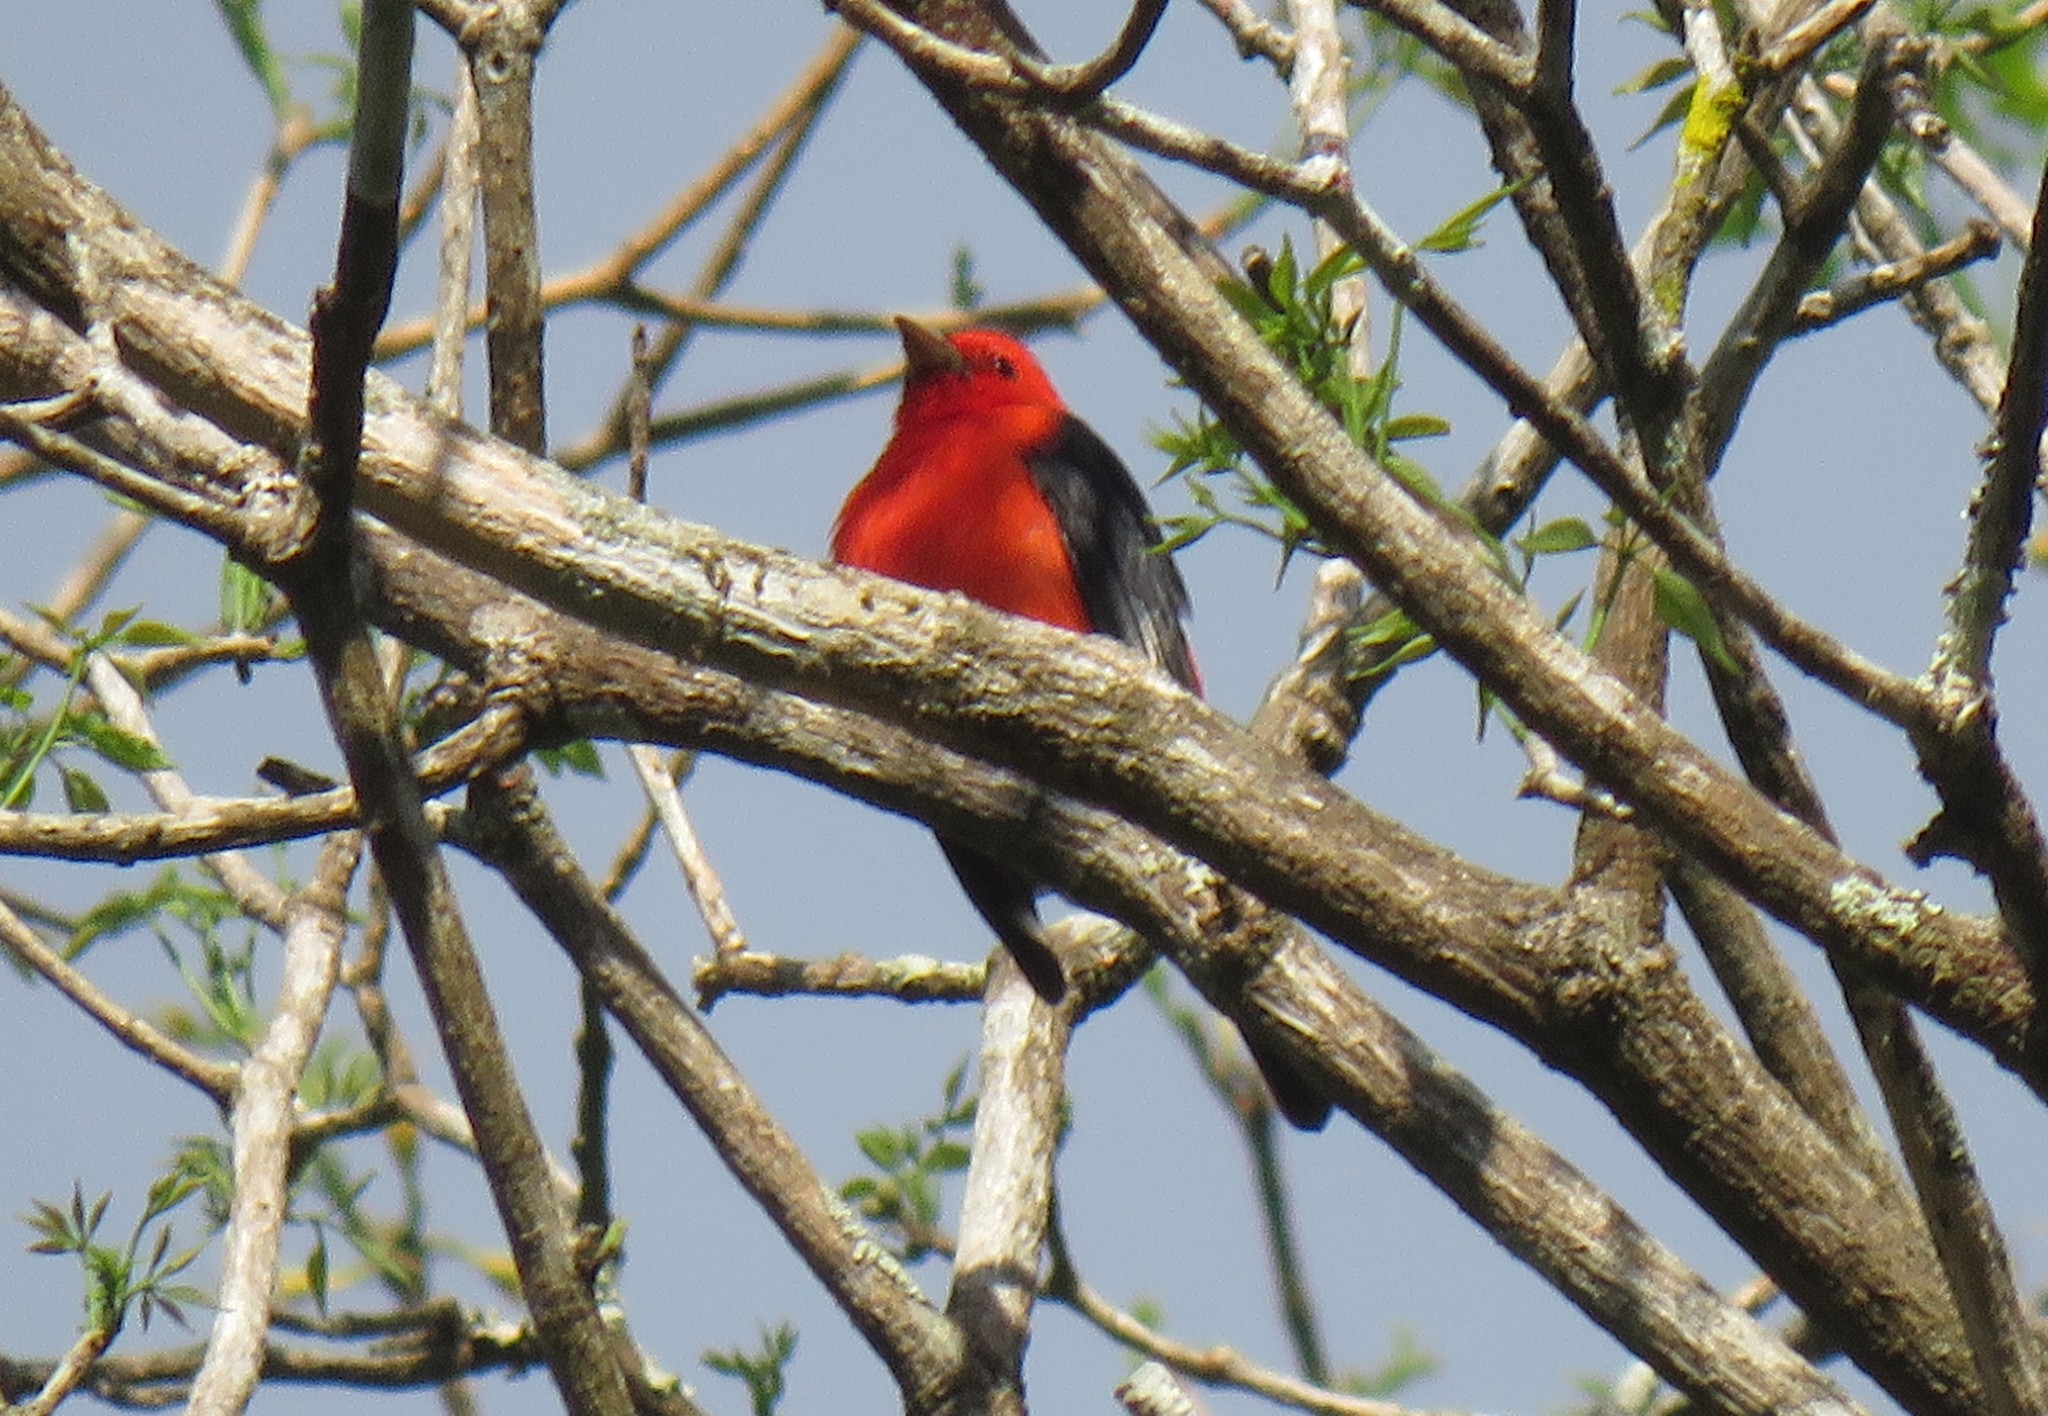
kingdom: Animalia
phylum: Chordata
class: Aves
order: Passeriformes
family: Cardinalidae
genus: Piranga
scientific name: Piranga olivacea
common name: Scarlet tanager
